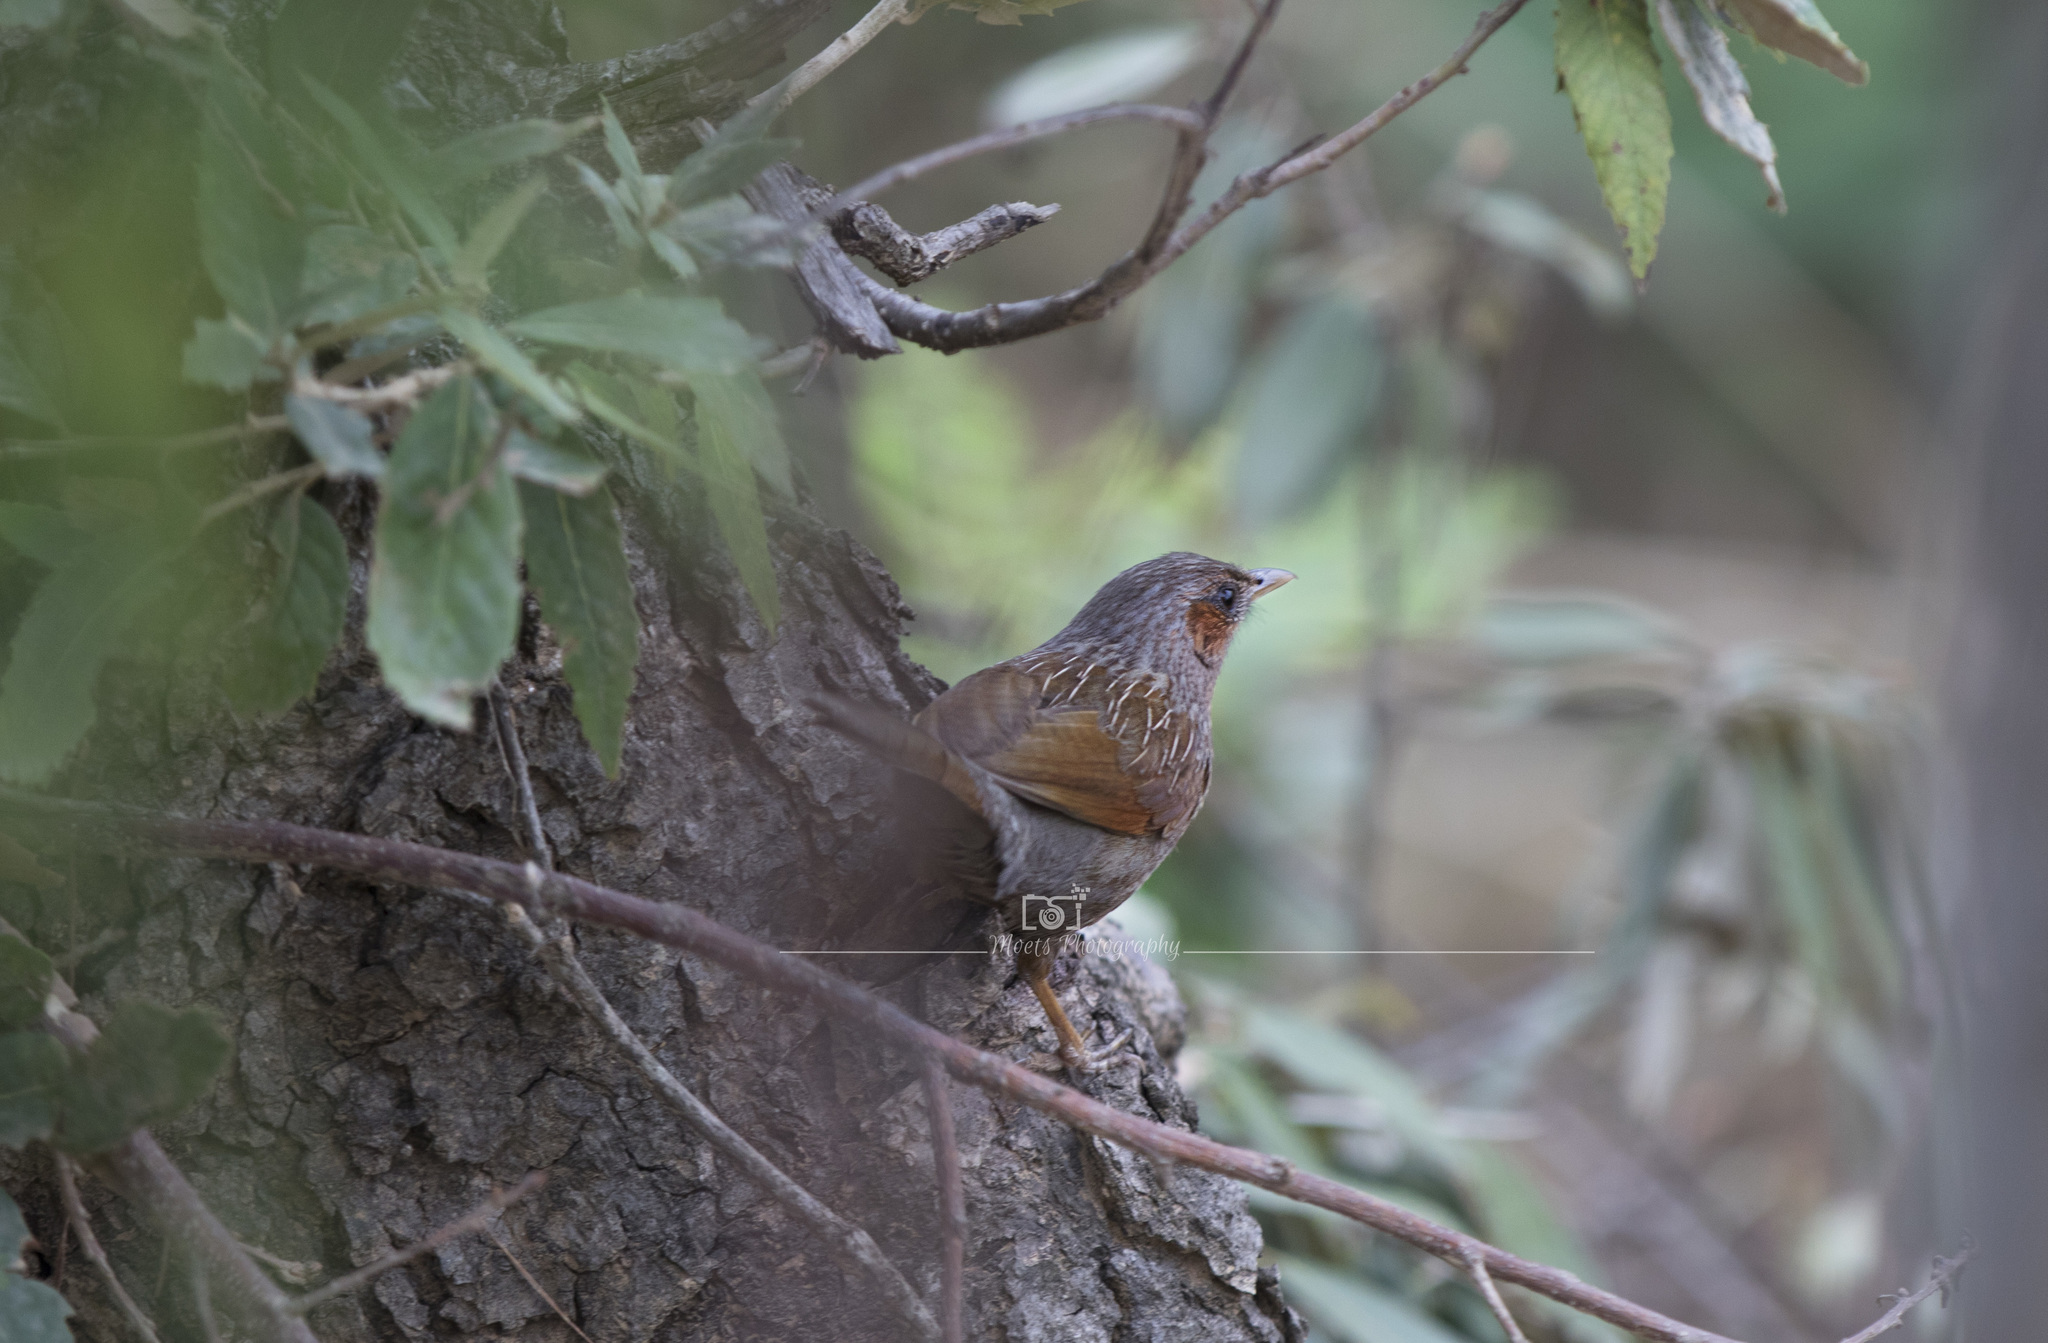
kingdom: Animalia
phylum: Chordata
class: Aves
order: Passeriformes
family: Leiothrichidae
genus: Trochalopteron
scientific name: Trochalopteron lineatum
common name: Streaked laughingthrush
